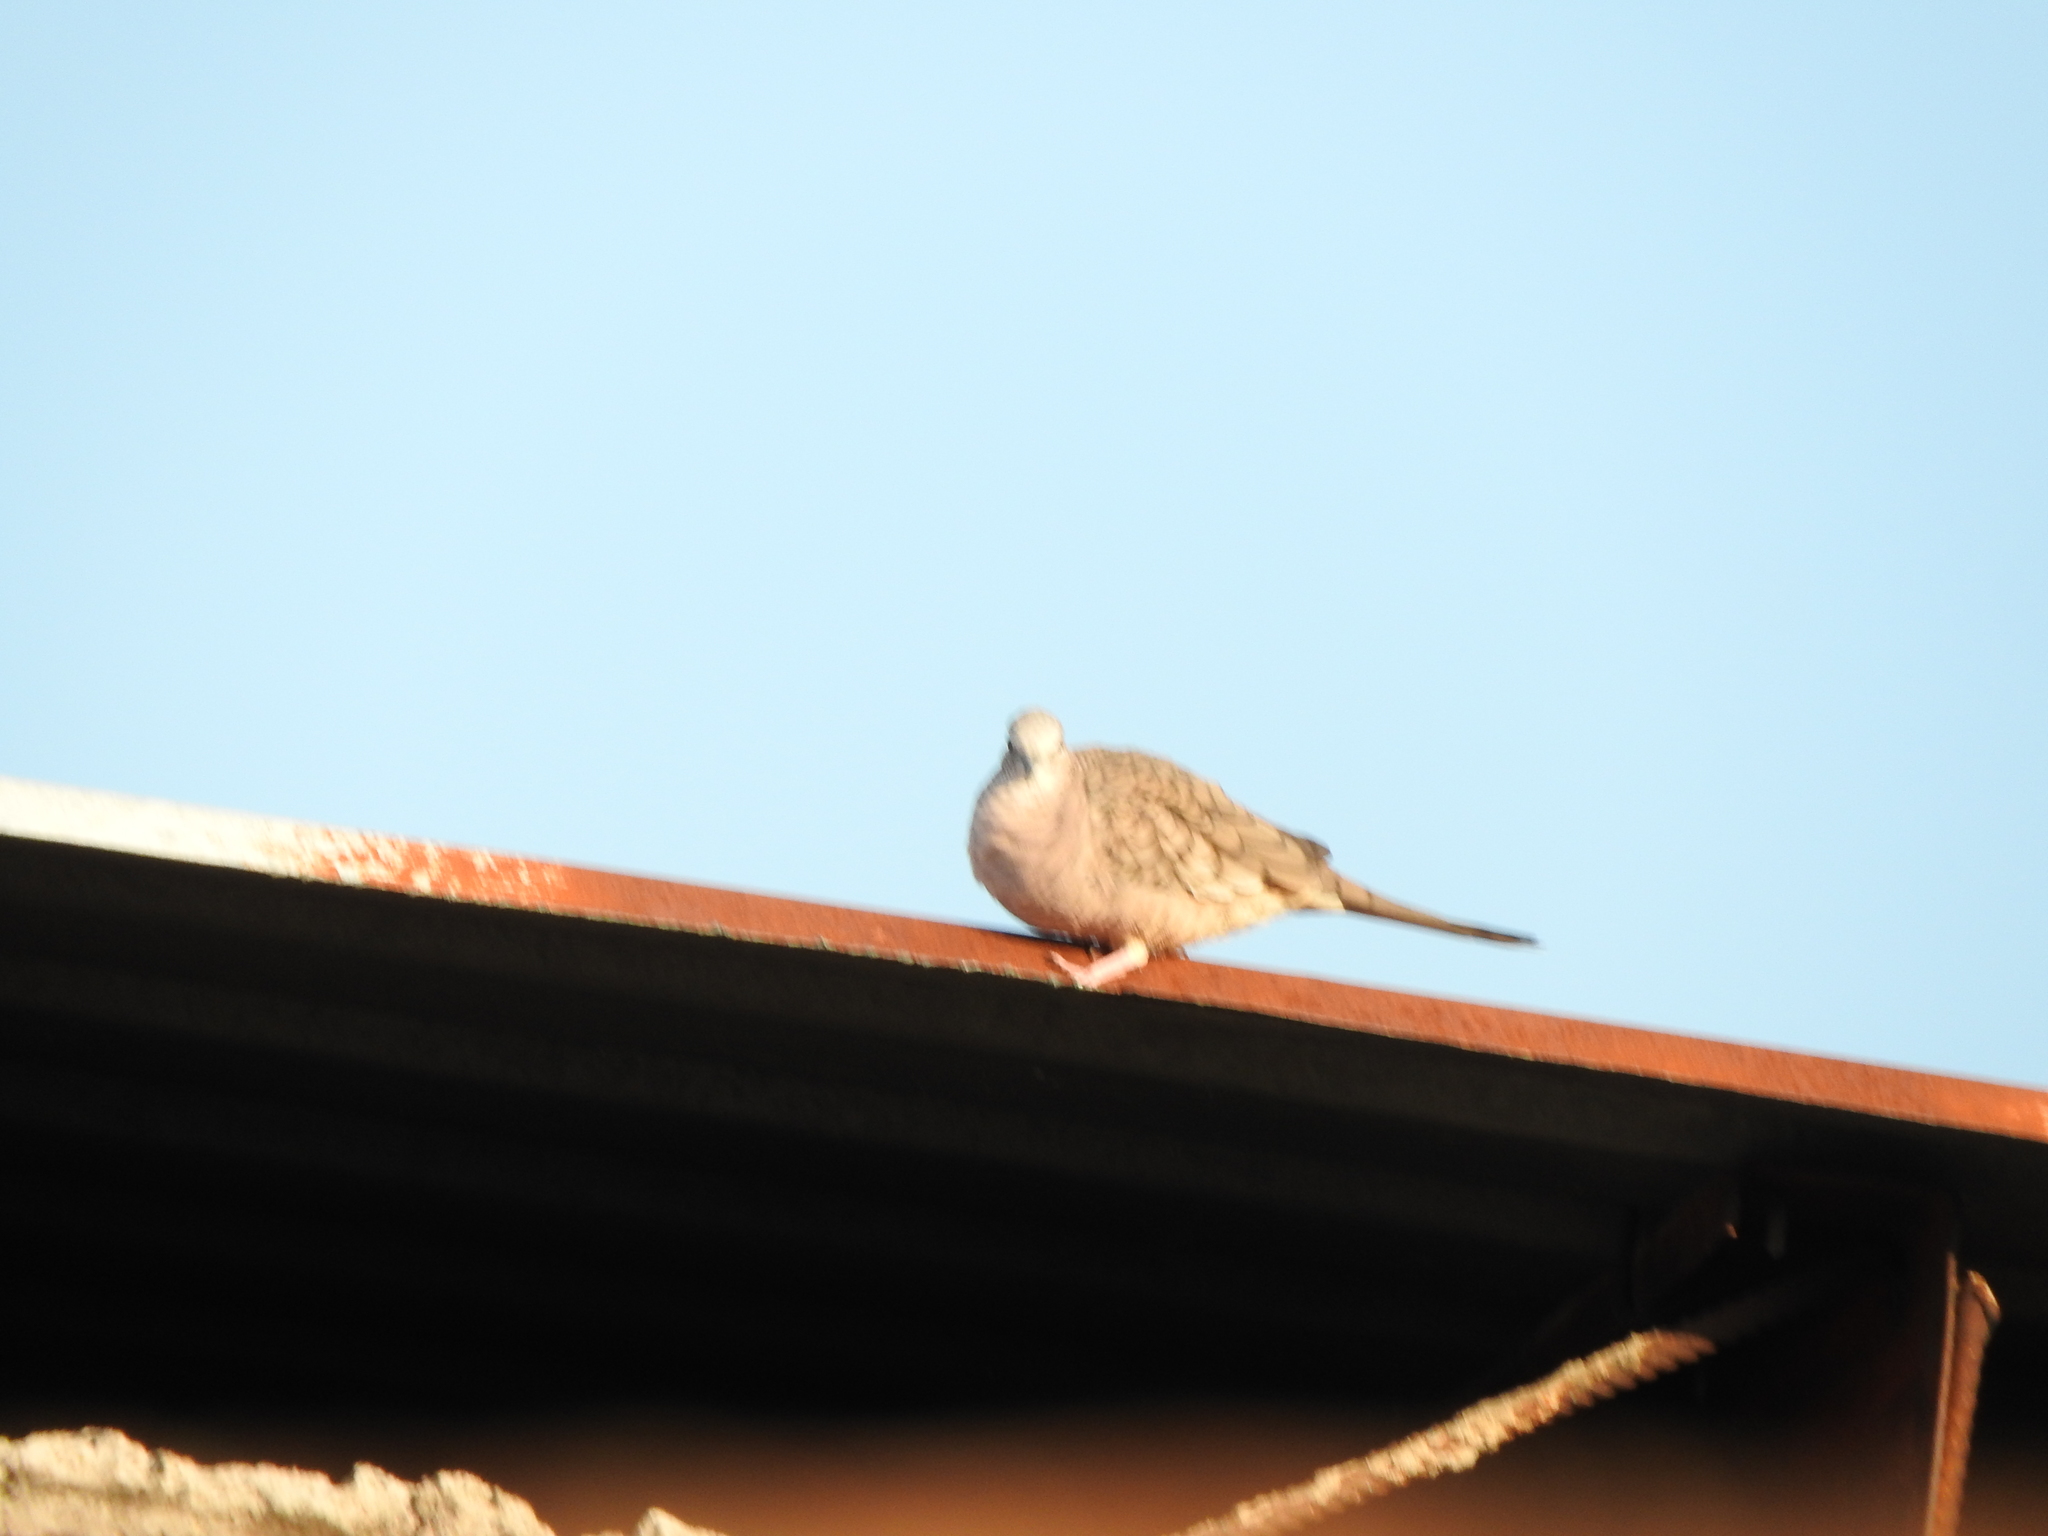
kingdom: Animalia
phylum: Chordata
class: Aves
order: Columbiformes
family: Columbidae
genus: Columbina
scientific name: Columbina inca
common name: Inca dove
